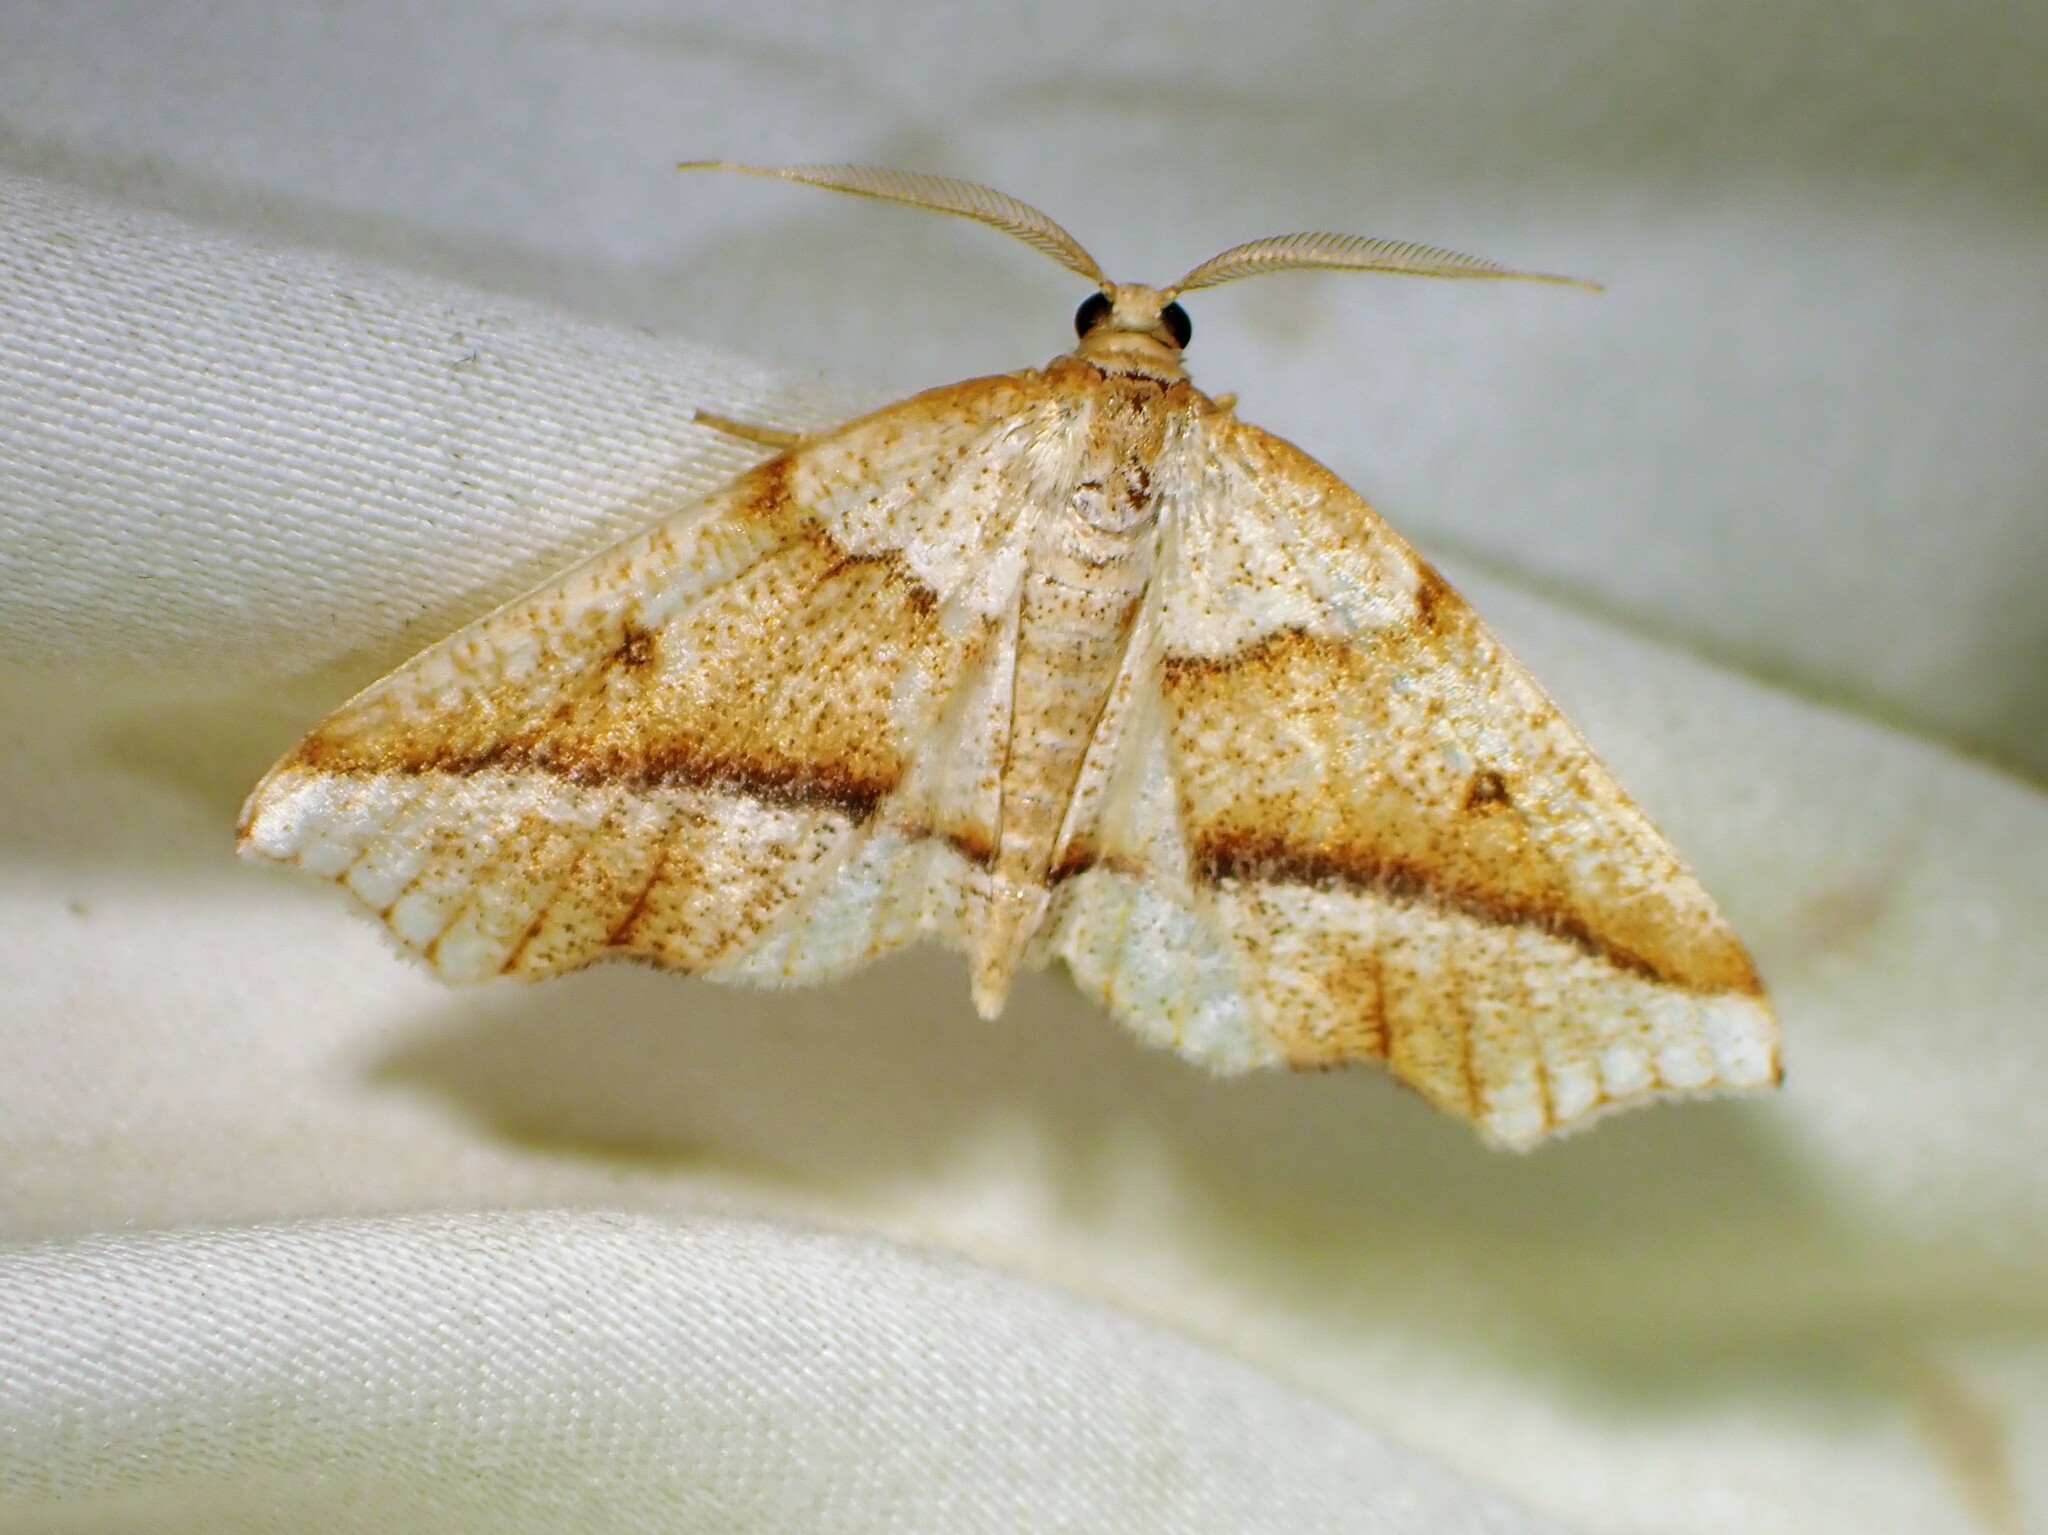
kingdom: Animalia
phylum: Arthropoda
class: Insecta
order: Lepidoptera
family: Geometridae
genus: Plagodis
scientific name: Plagodis alcoolaria
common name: Hollow-spotted plagodis
